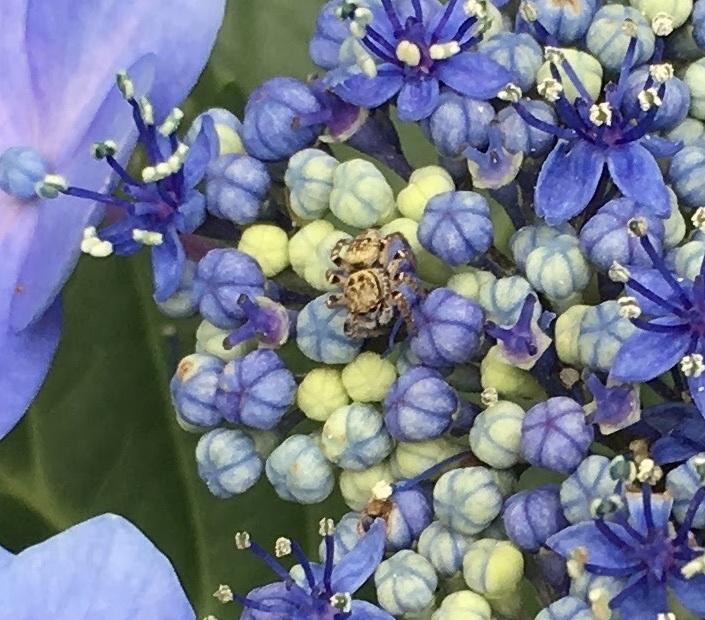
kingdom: Animalia
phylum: Arthropoda
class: Arachnida
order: Araneae
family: Salticidae
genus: Carrhotus
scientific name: Carrhotus xanthogramma
